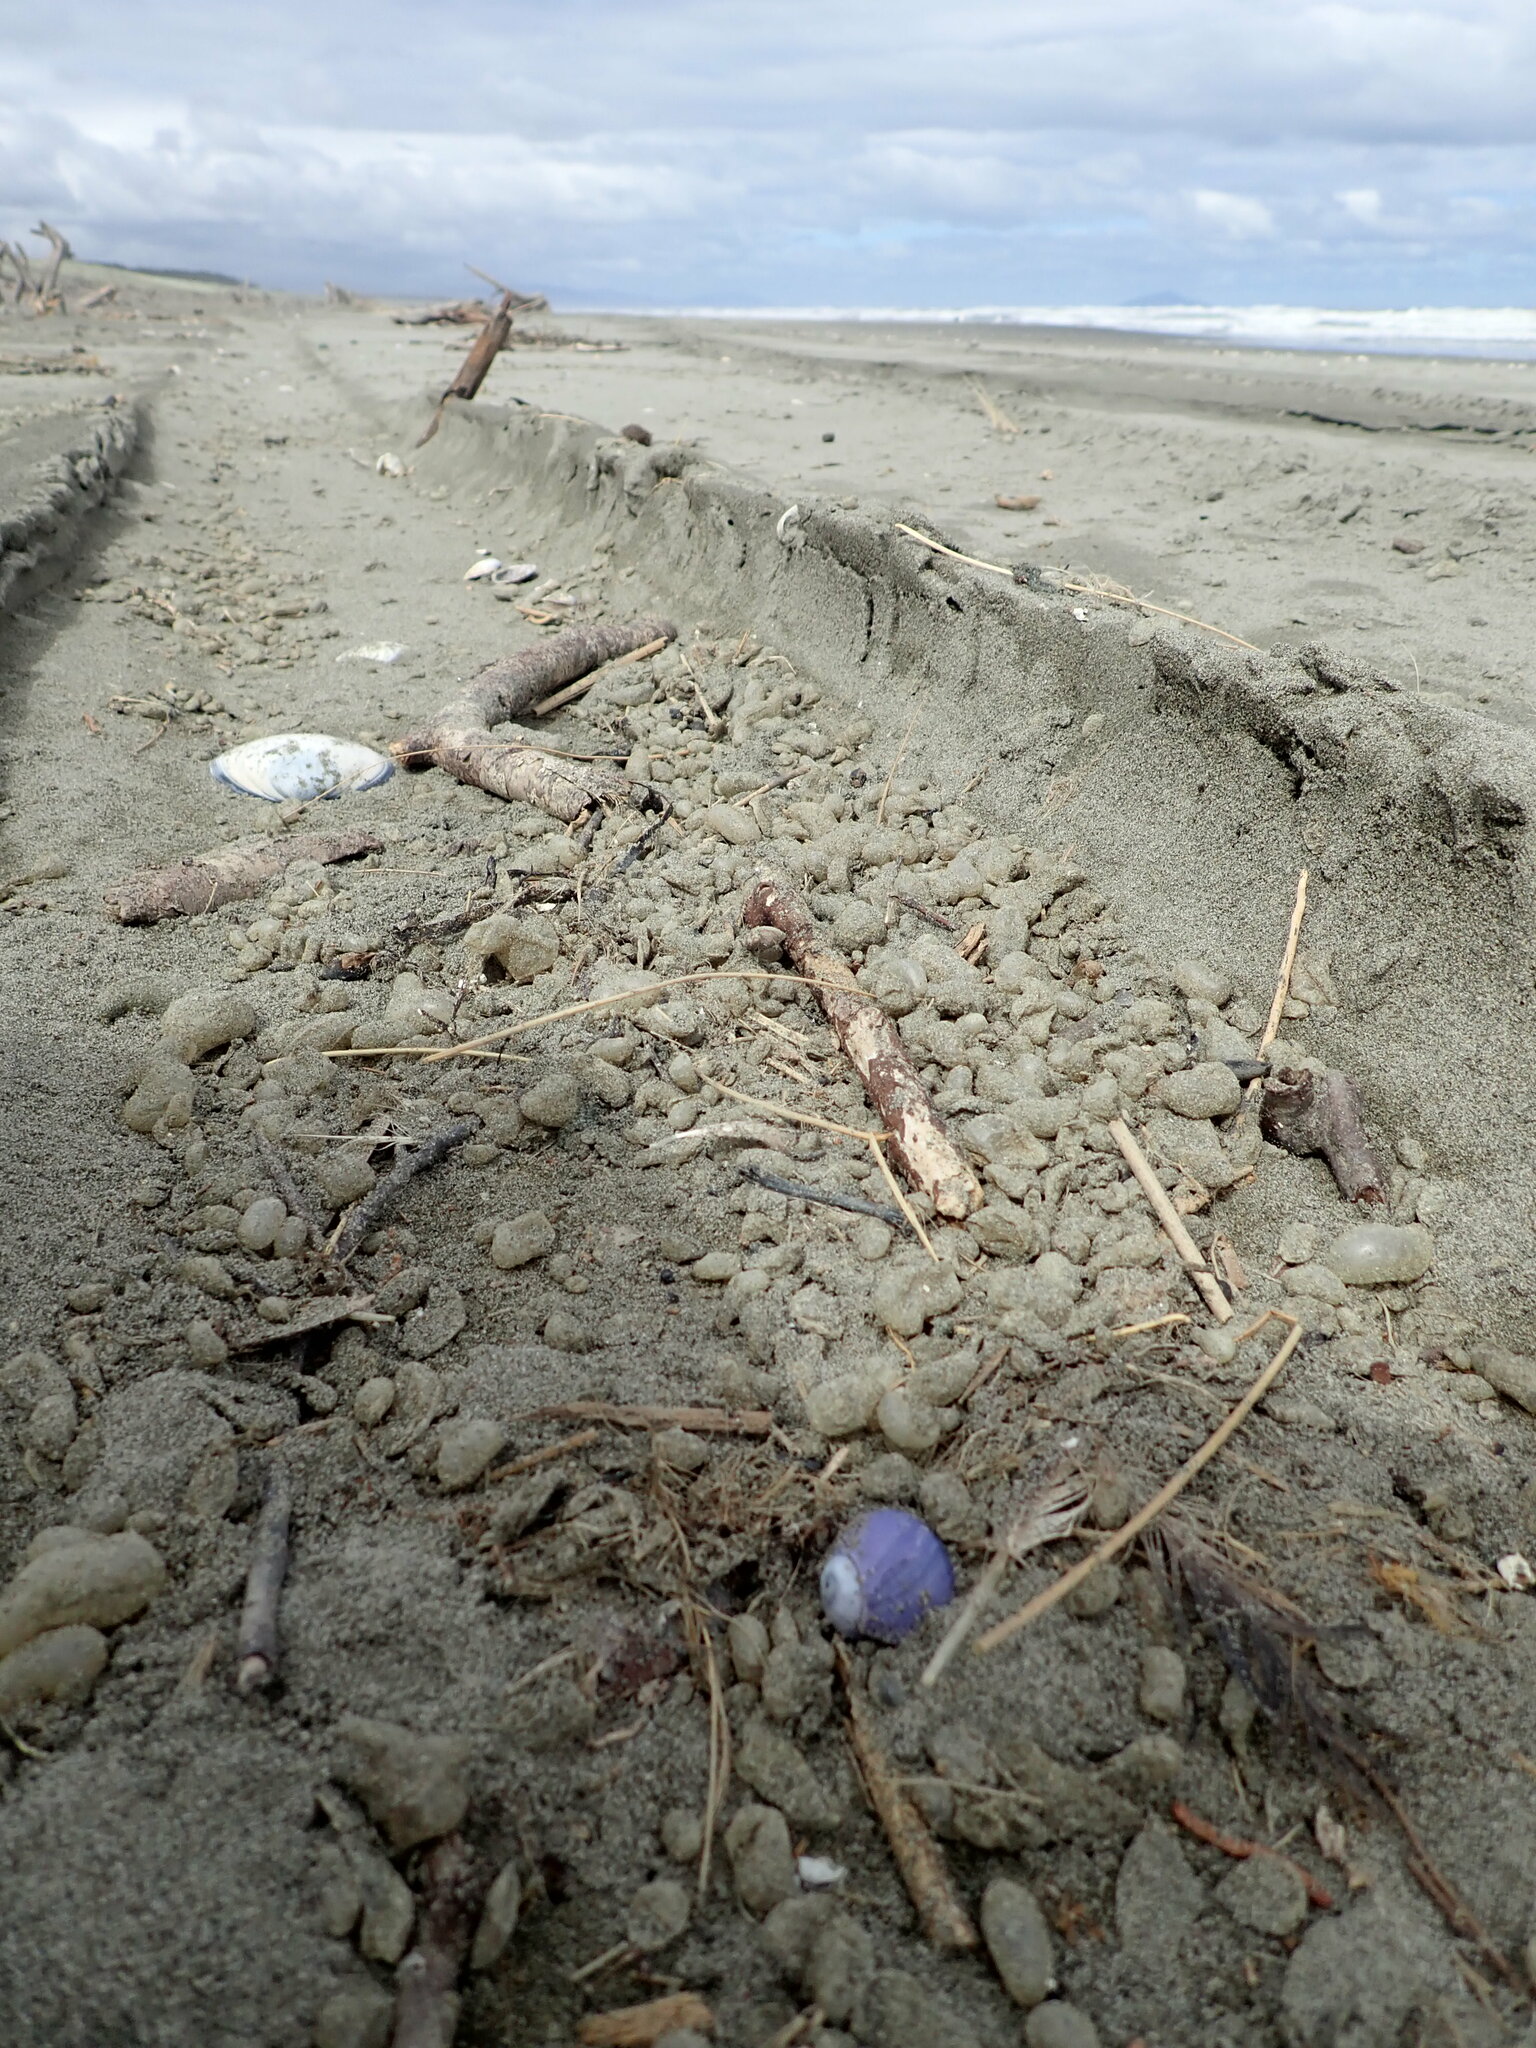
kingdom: Animalia
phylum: Mollusca
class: Gastropoda
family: Epitoniidae
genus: Janthina
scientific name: Janthina janthina
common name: Common janthina
